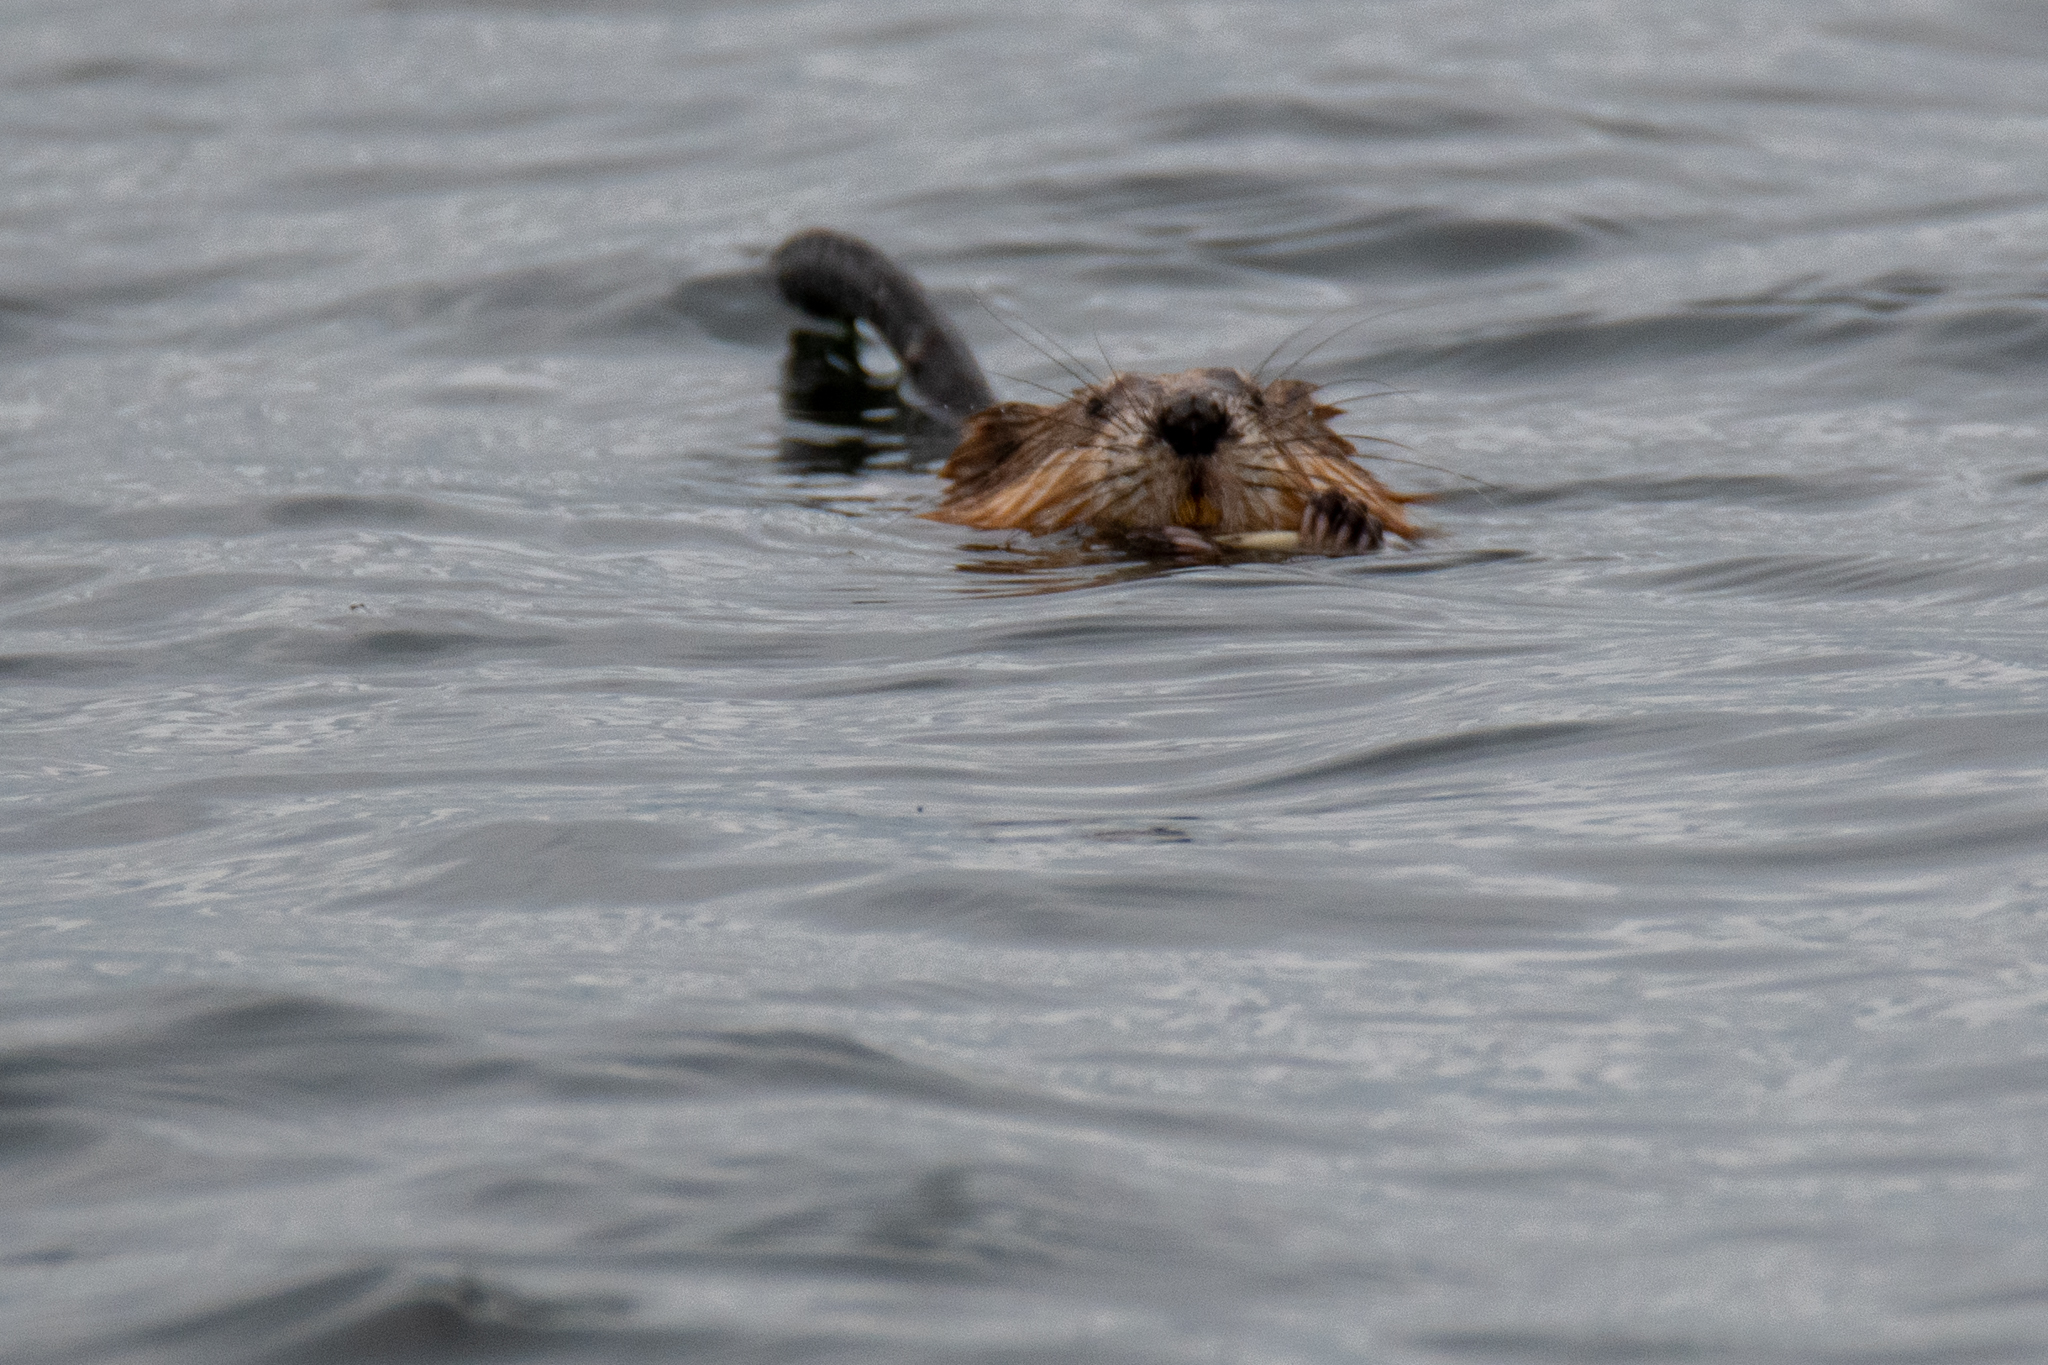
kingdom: Animalia
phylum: Chordata
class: Mammalia
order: Rodentia
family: Cricetidae
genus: Ondatra
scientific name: Ondatra zibethicus
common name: Muskrat
